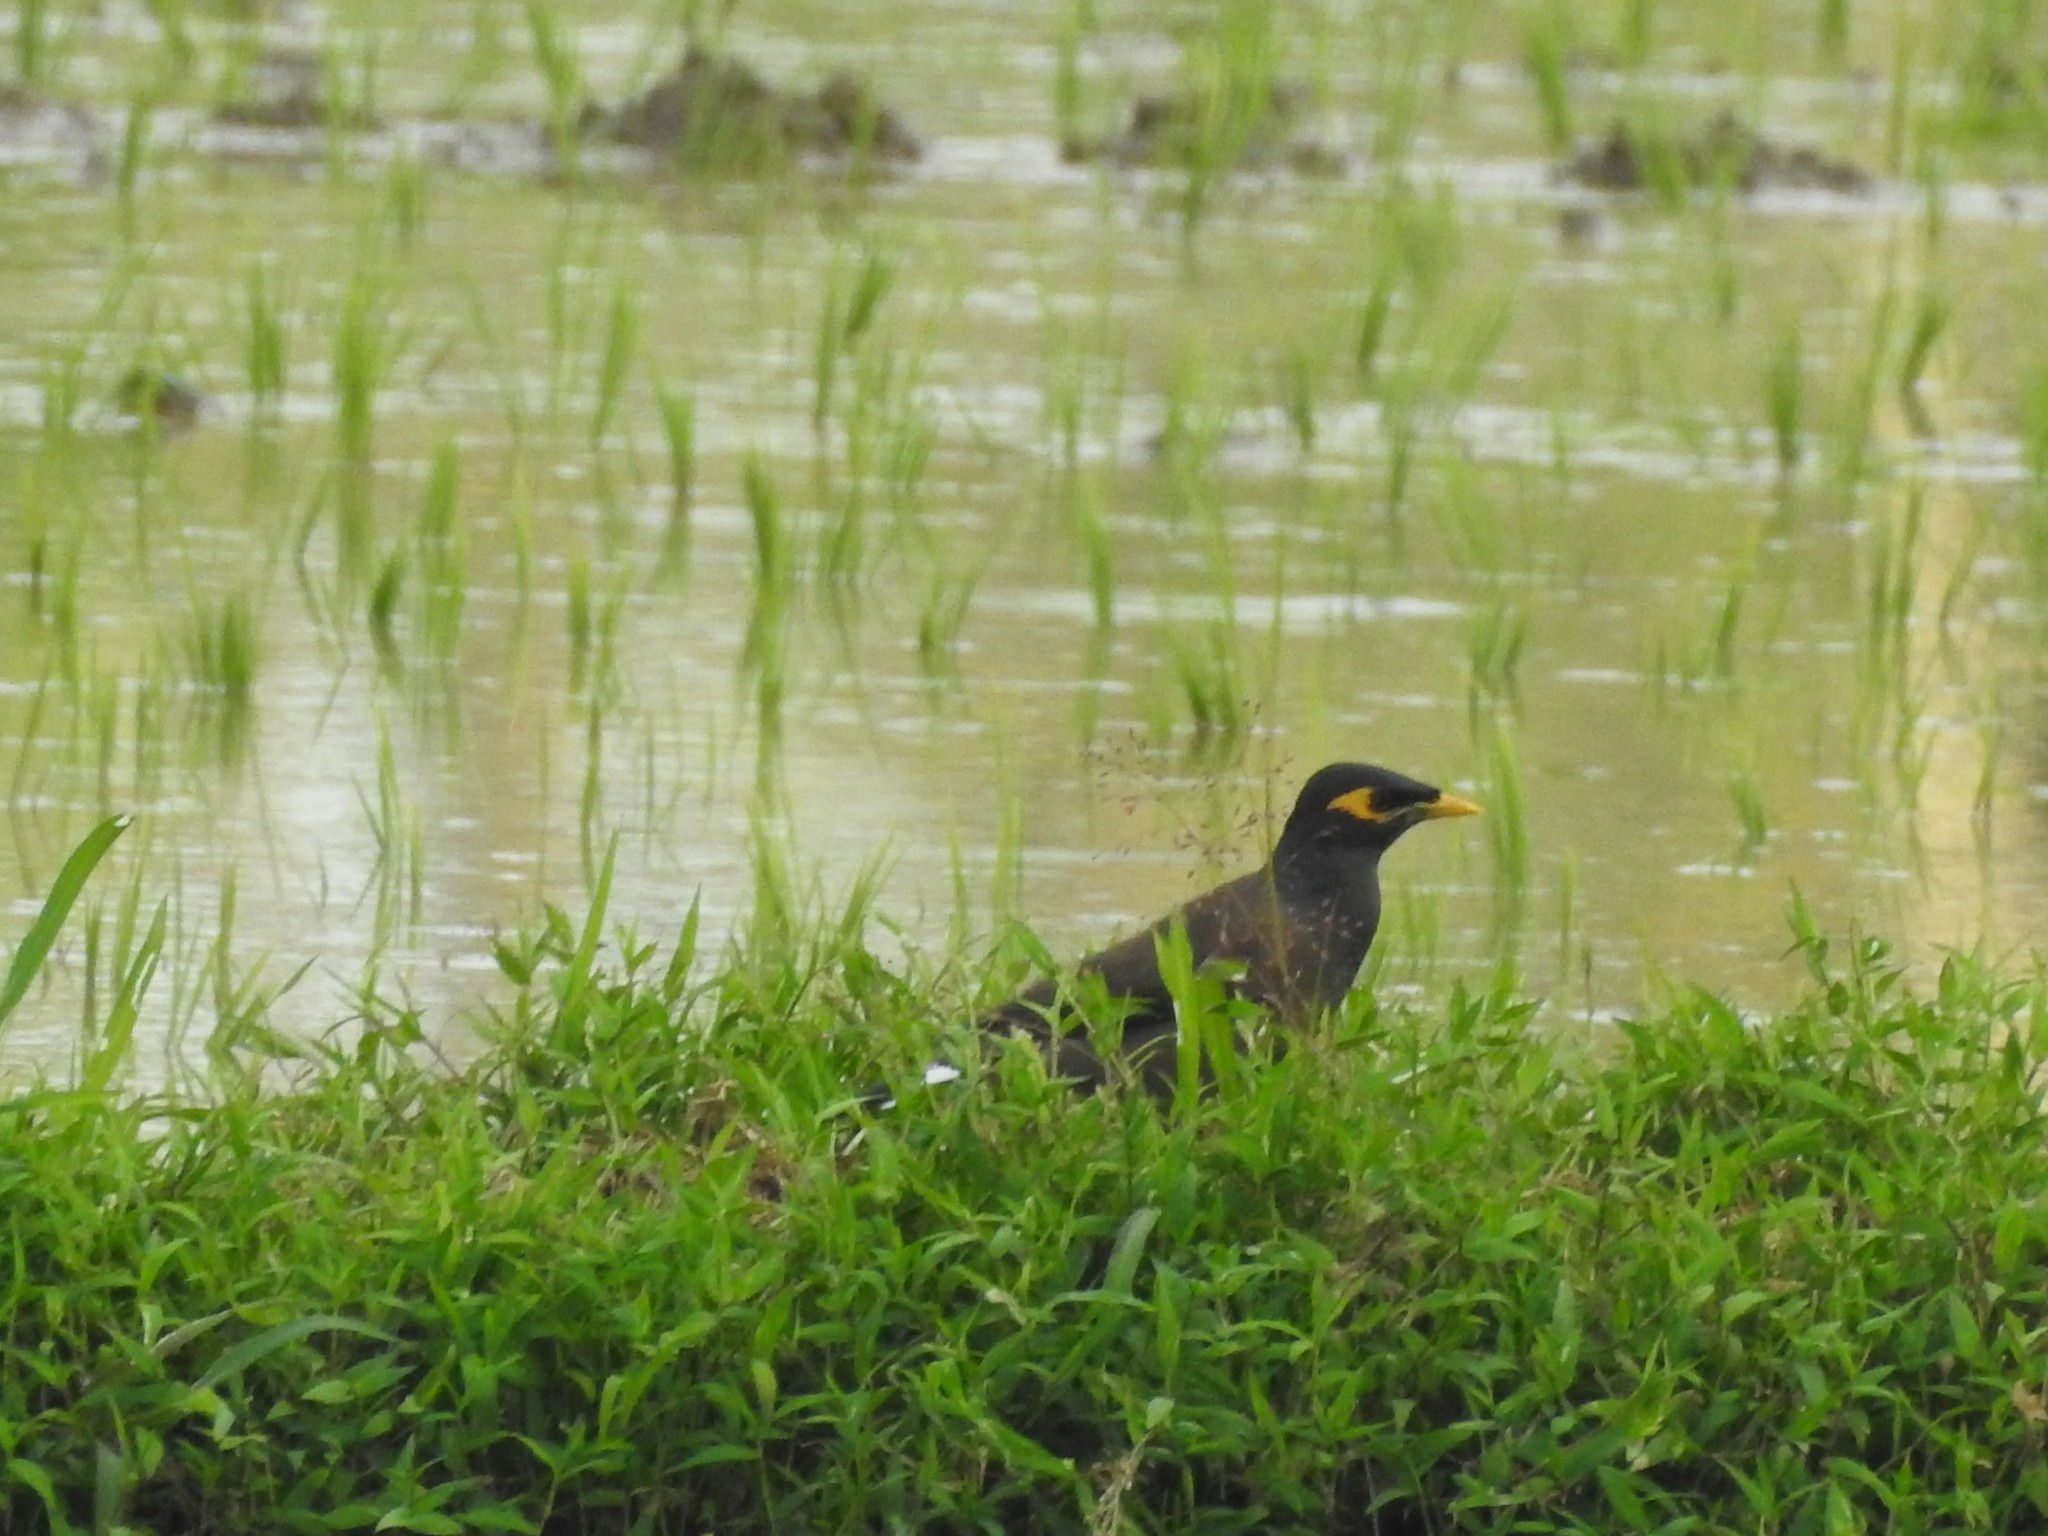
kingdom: Animalia
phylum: Chordata
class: Aves
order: Passeriformes
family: Sturnidae
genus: Acridotheres
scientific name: Acridotheres tristis
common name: Common myna
